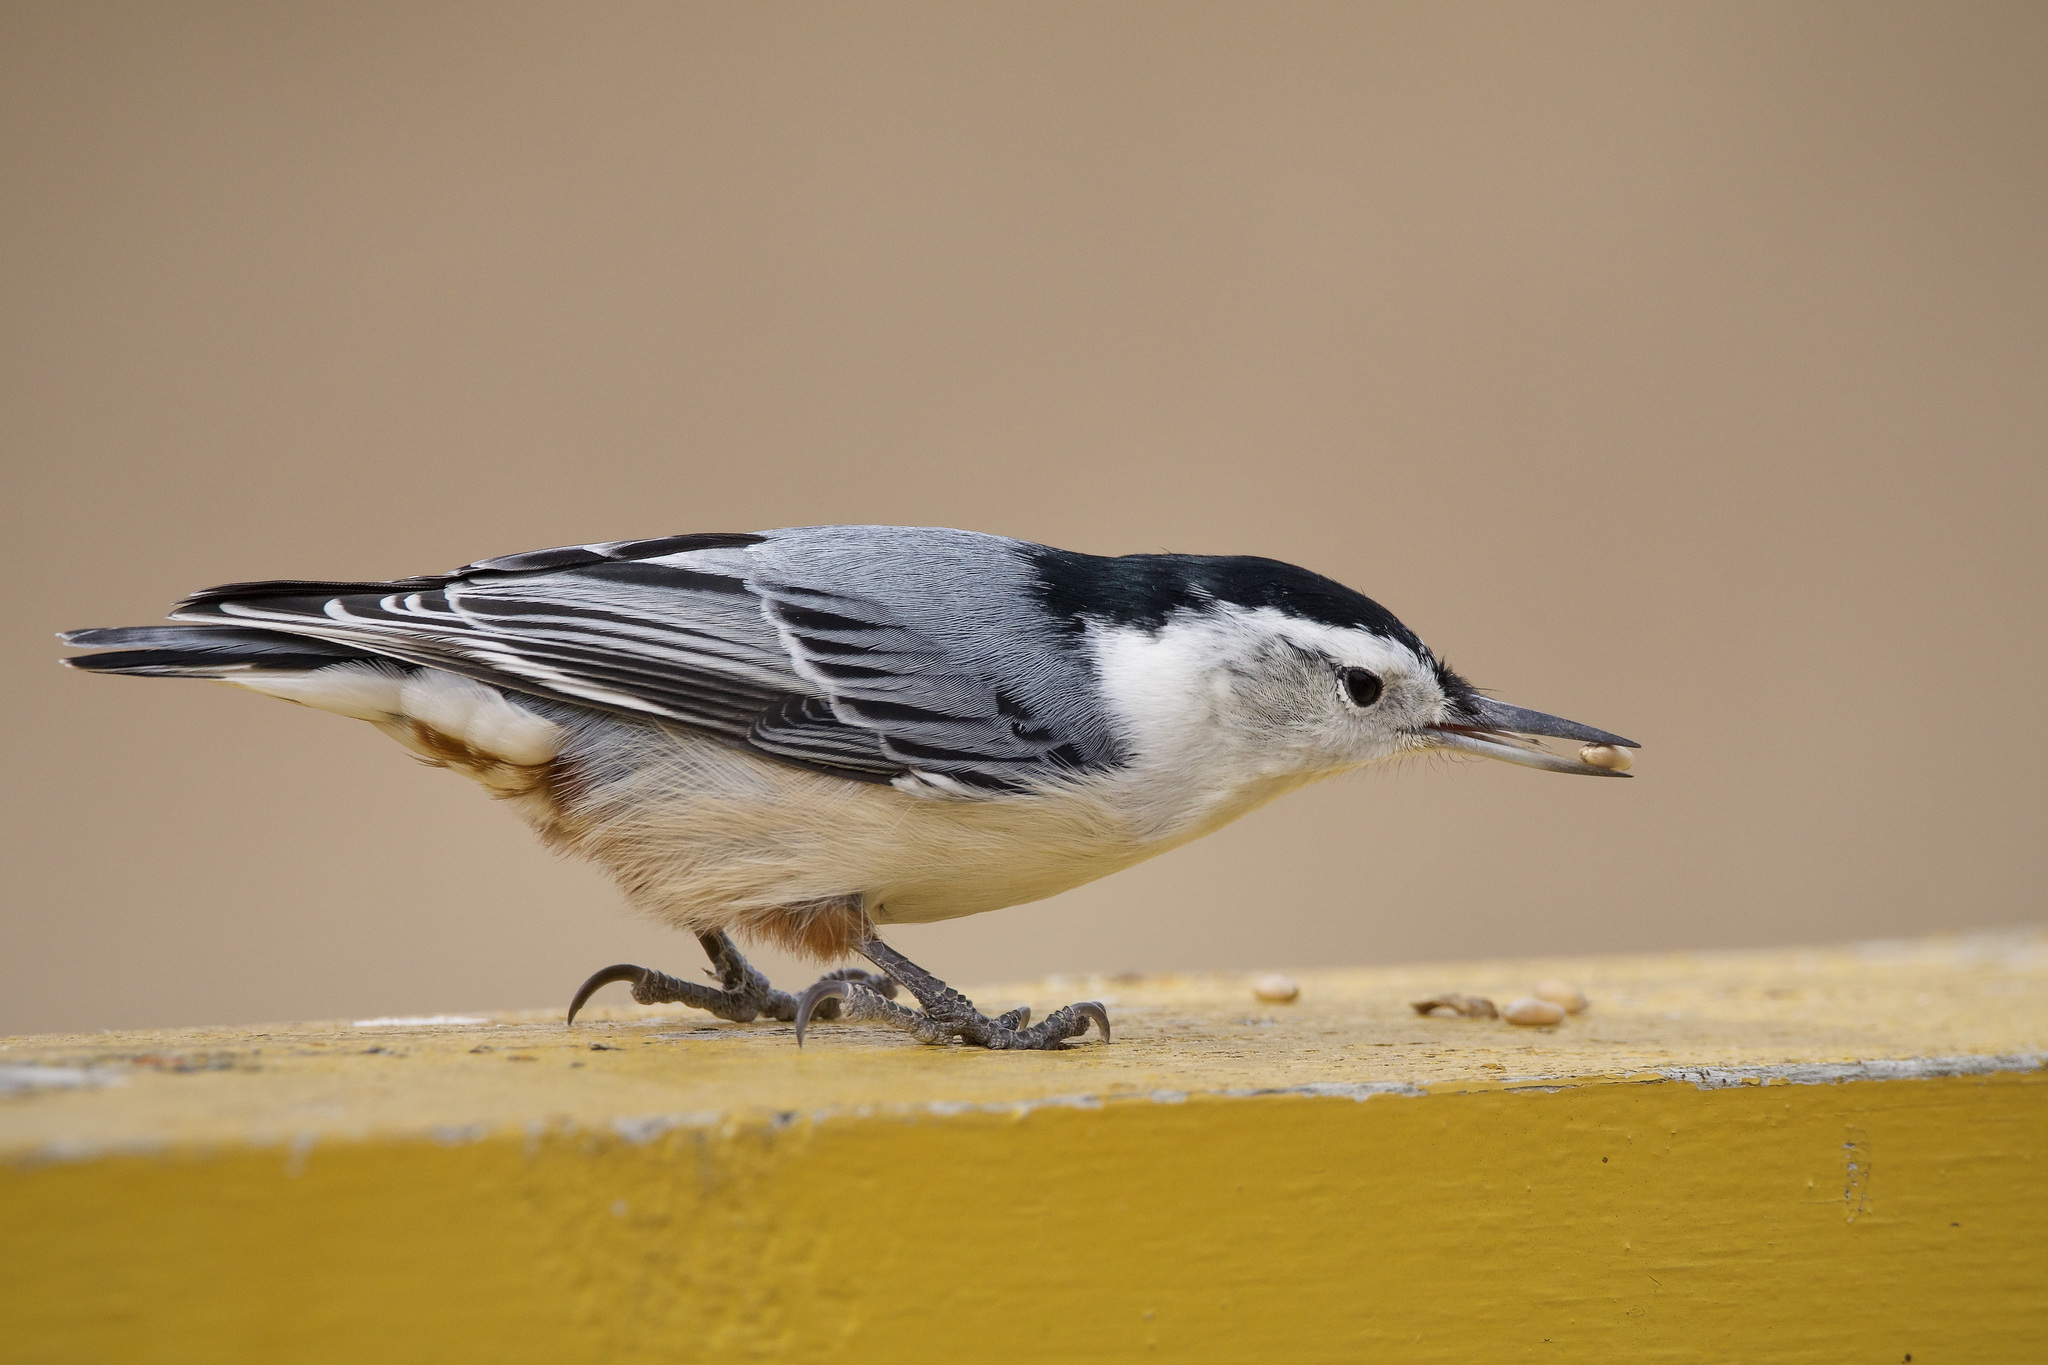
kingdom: Animalia
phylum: Chordata
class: Aves
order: Passeriformes
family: Sittidae
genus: Sitta
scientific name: Sitta carolinensis
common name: White-breasted nuthatch
